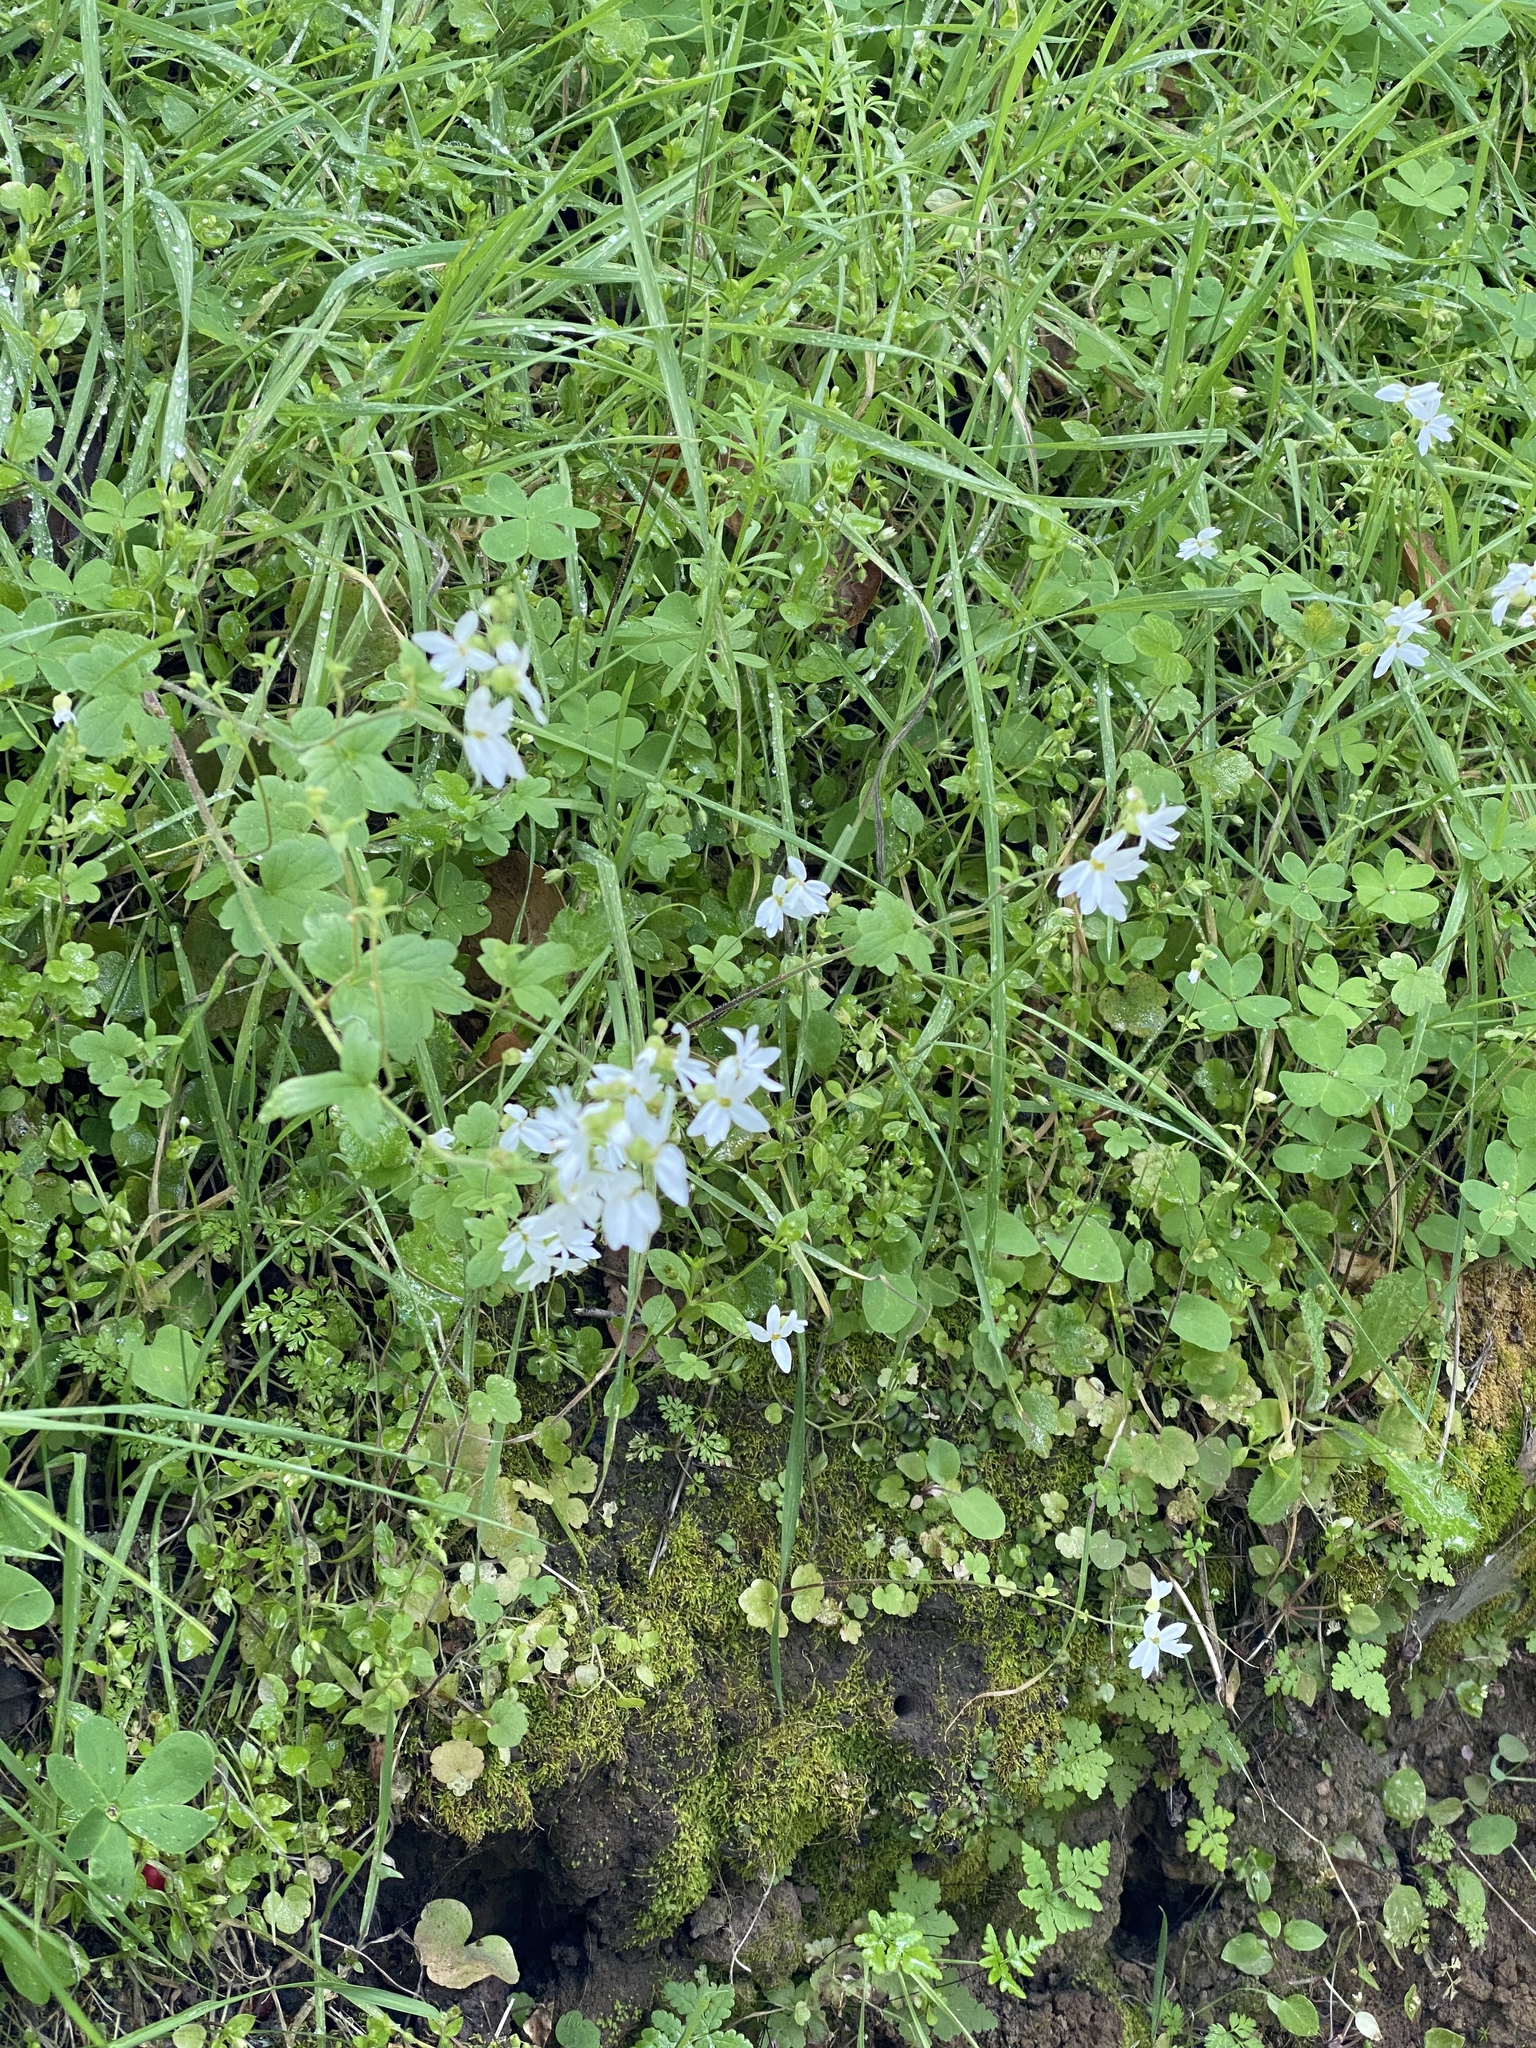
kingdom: Plantae
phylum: Tracheophyta
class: Magnoliopsida
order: Saxifragales
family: Saxifragaceae
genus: Lithophragma
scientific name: Lithophragma heterophyllum
